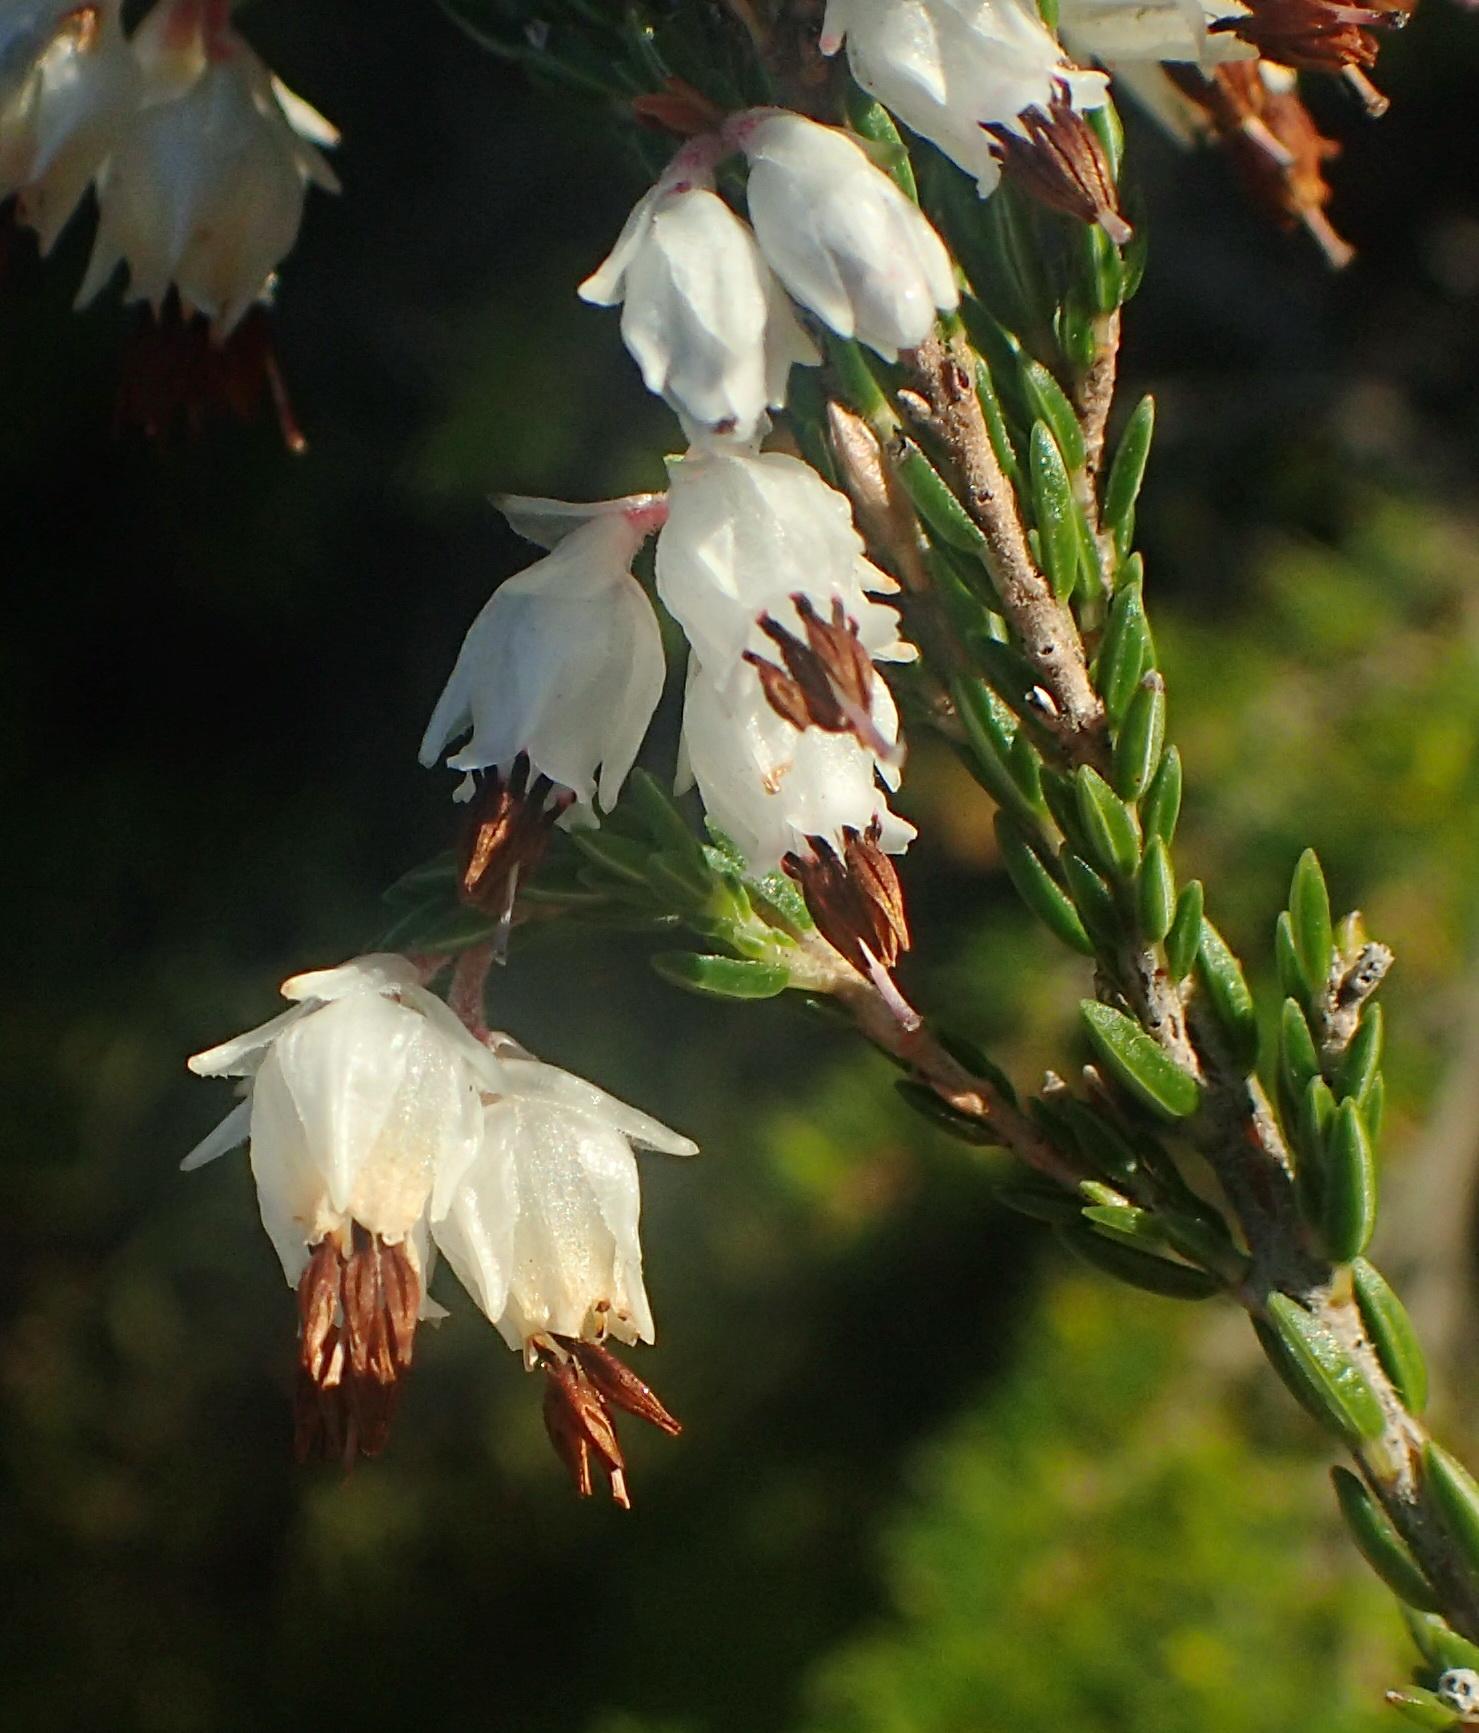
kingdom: Plantae
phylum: Tracheophyta
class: Magnoliopsida
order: Ericales
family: Ericaceae
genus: Erica
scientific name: Erica triceps
